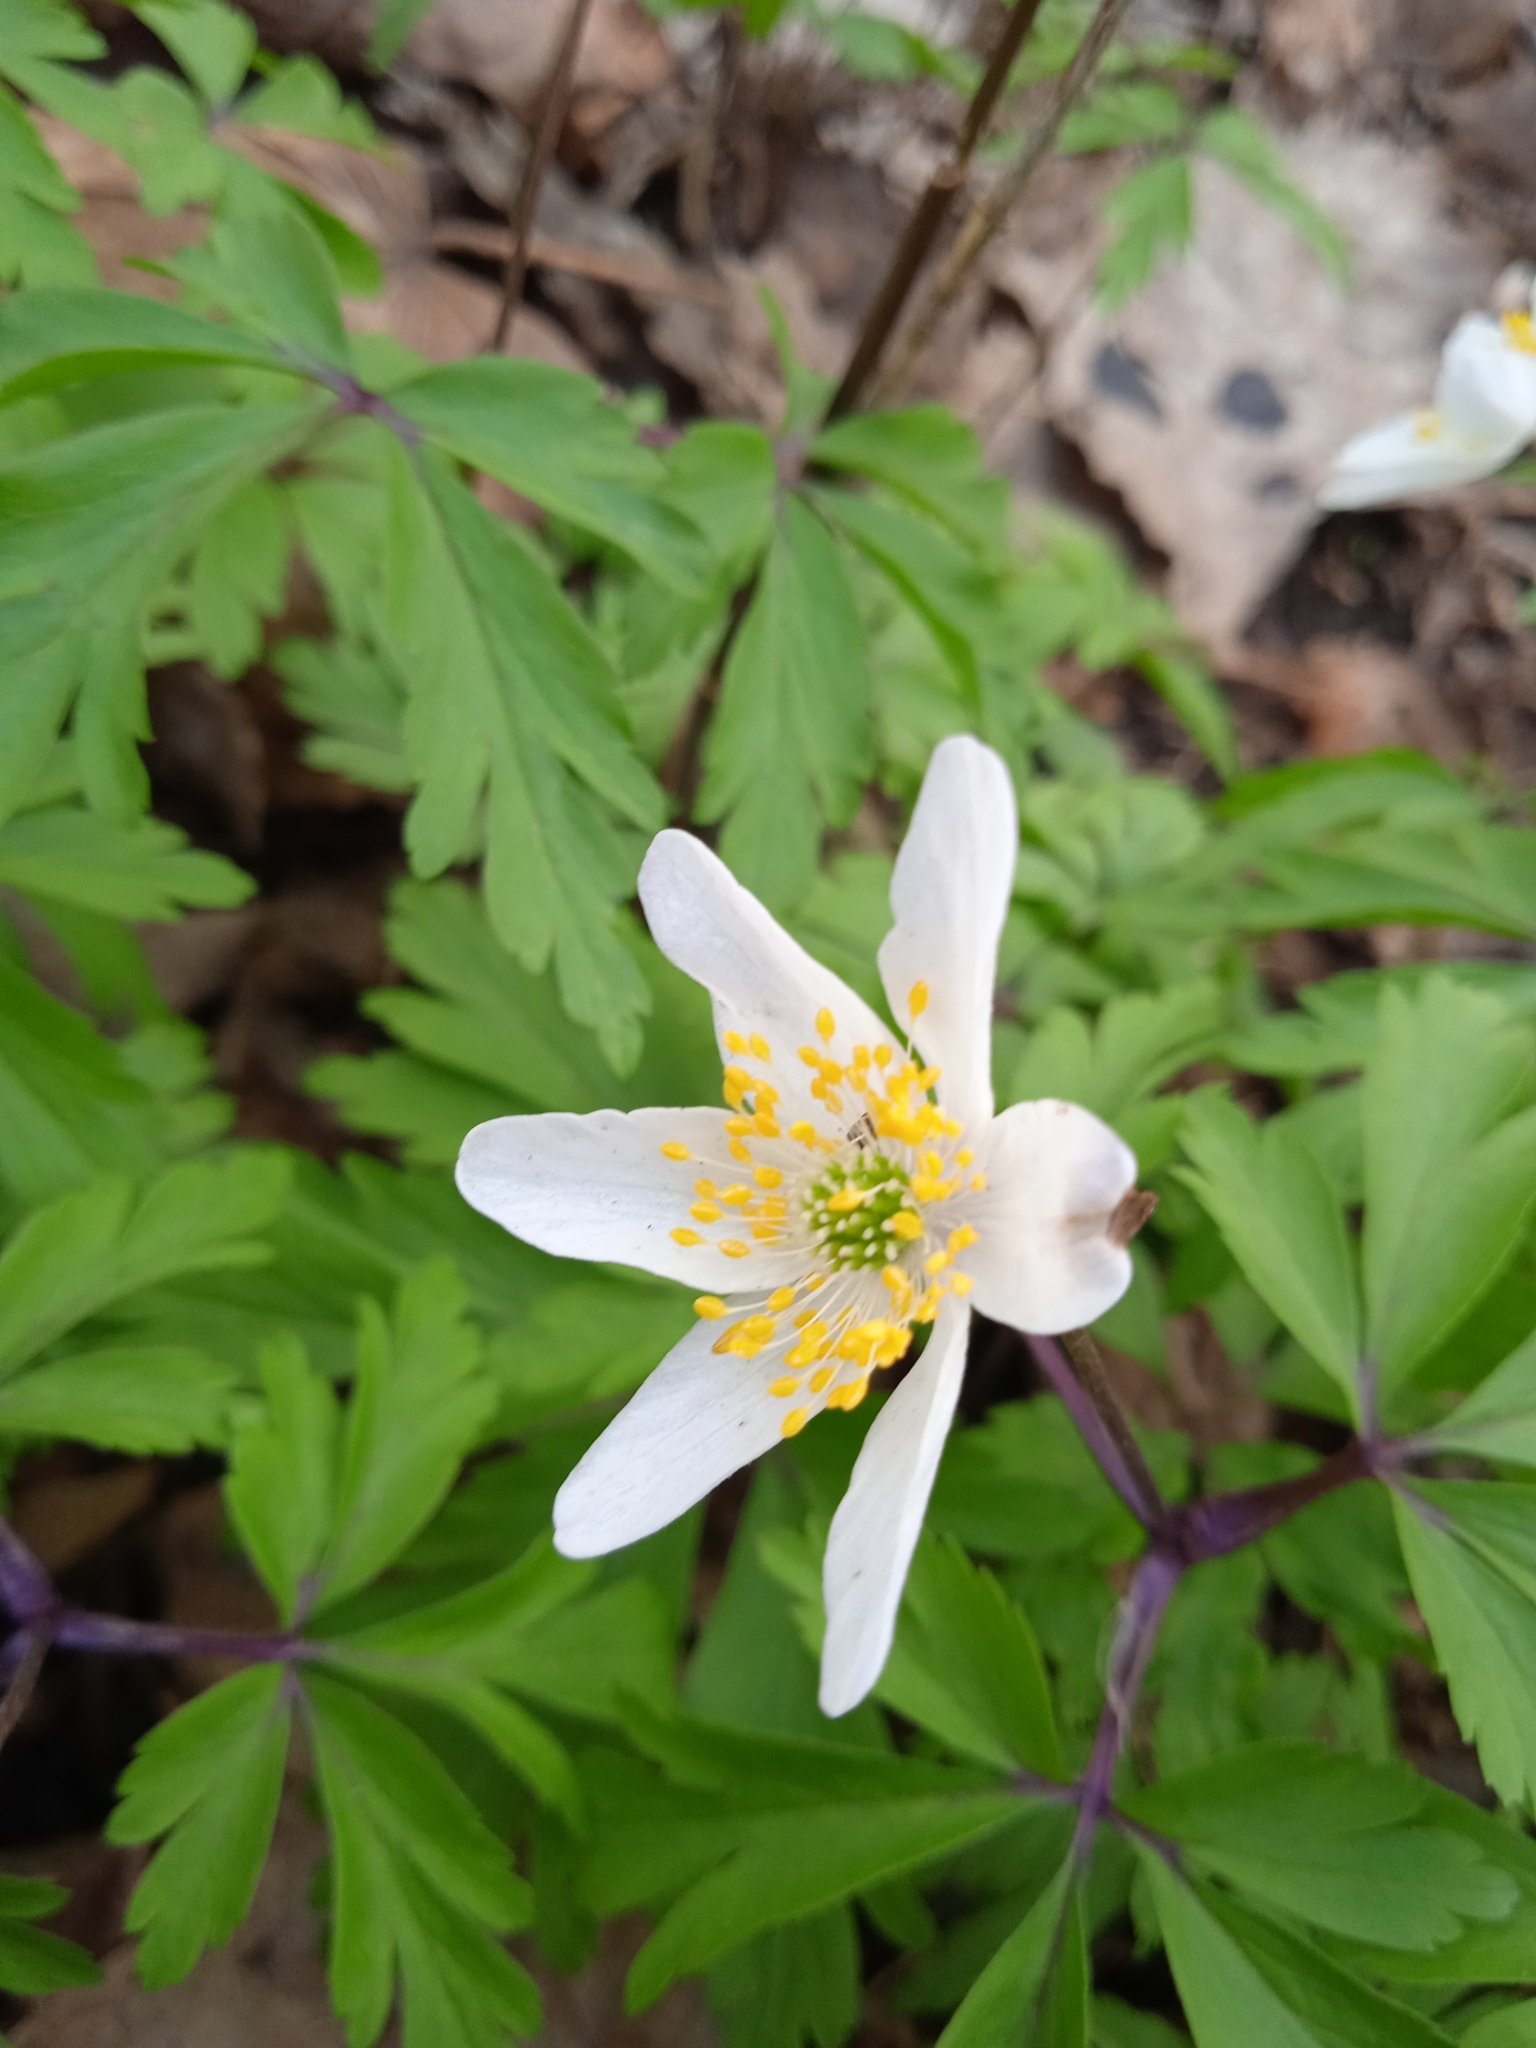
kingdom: Plantae
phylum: Tracheophyta
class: Magnoliopsida
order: Ranunculales
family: Ranunculaceae
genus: Anemone
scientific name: Anemone nemorosa
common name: Wood anemone
